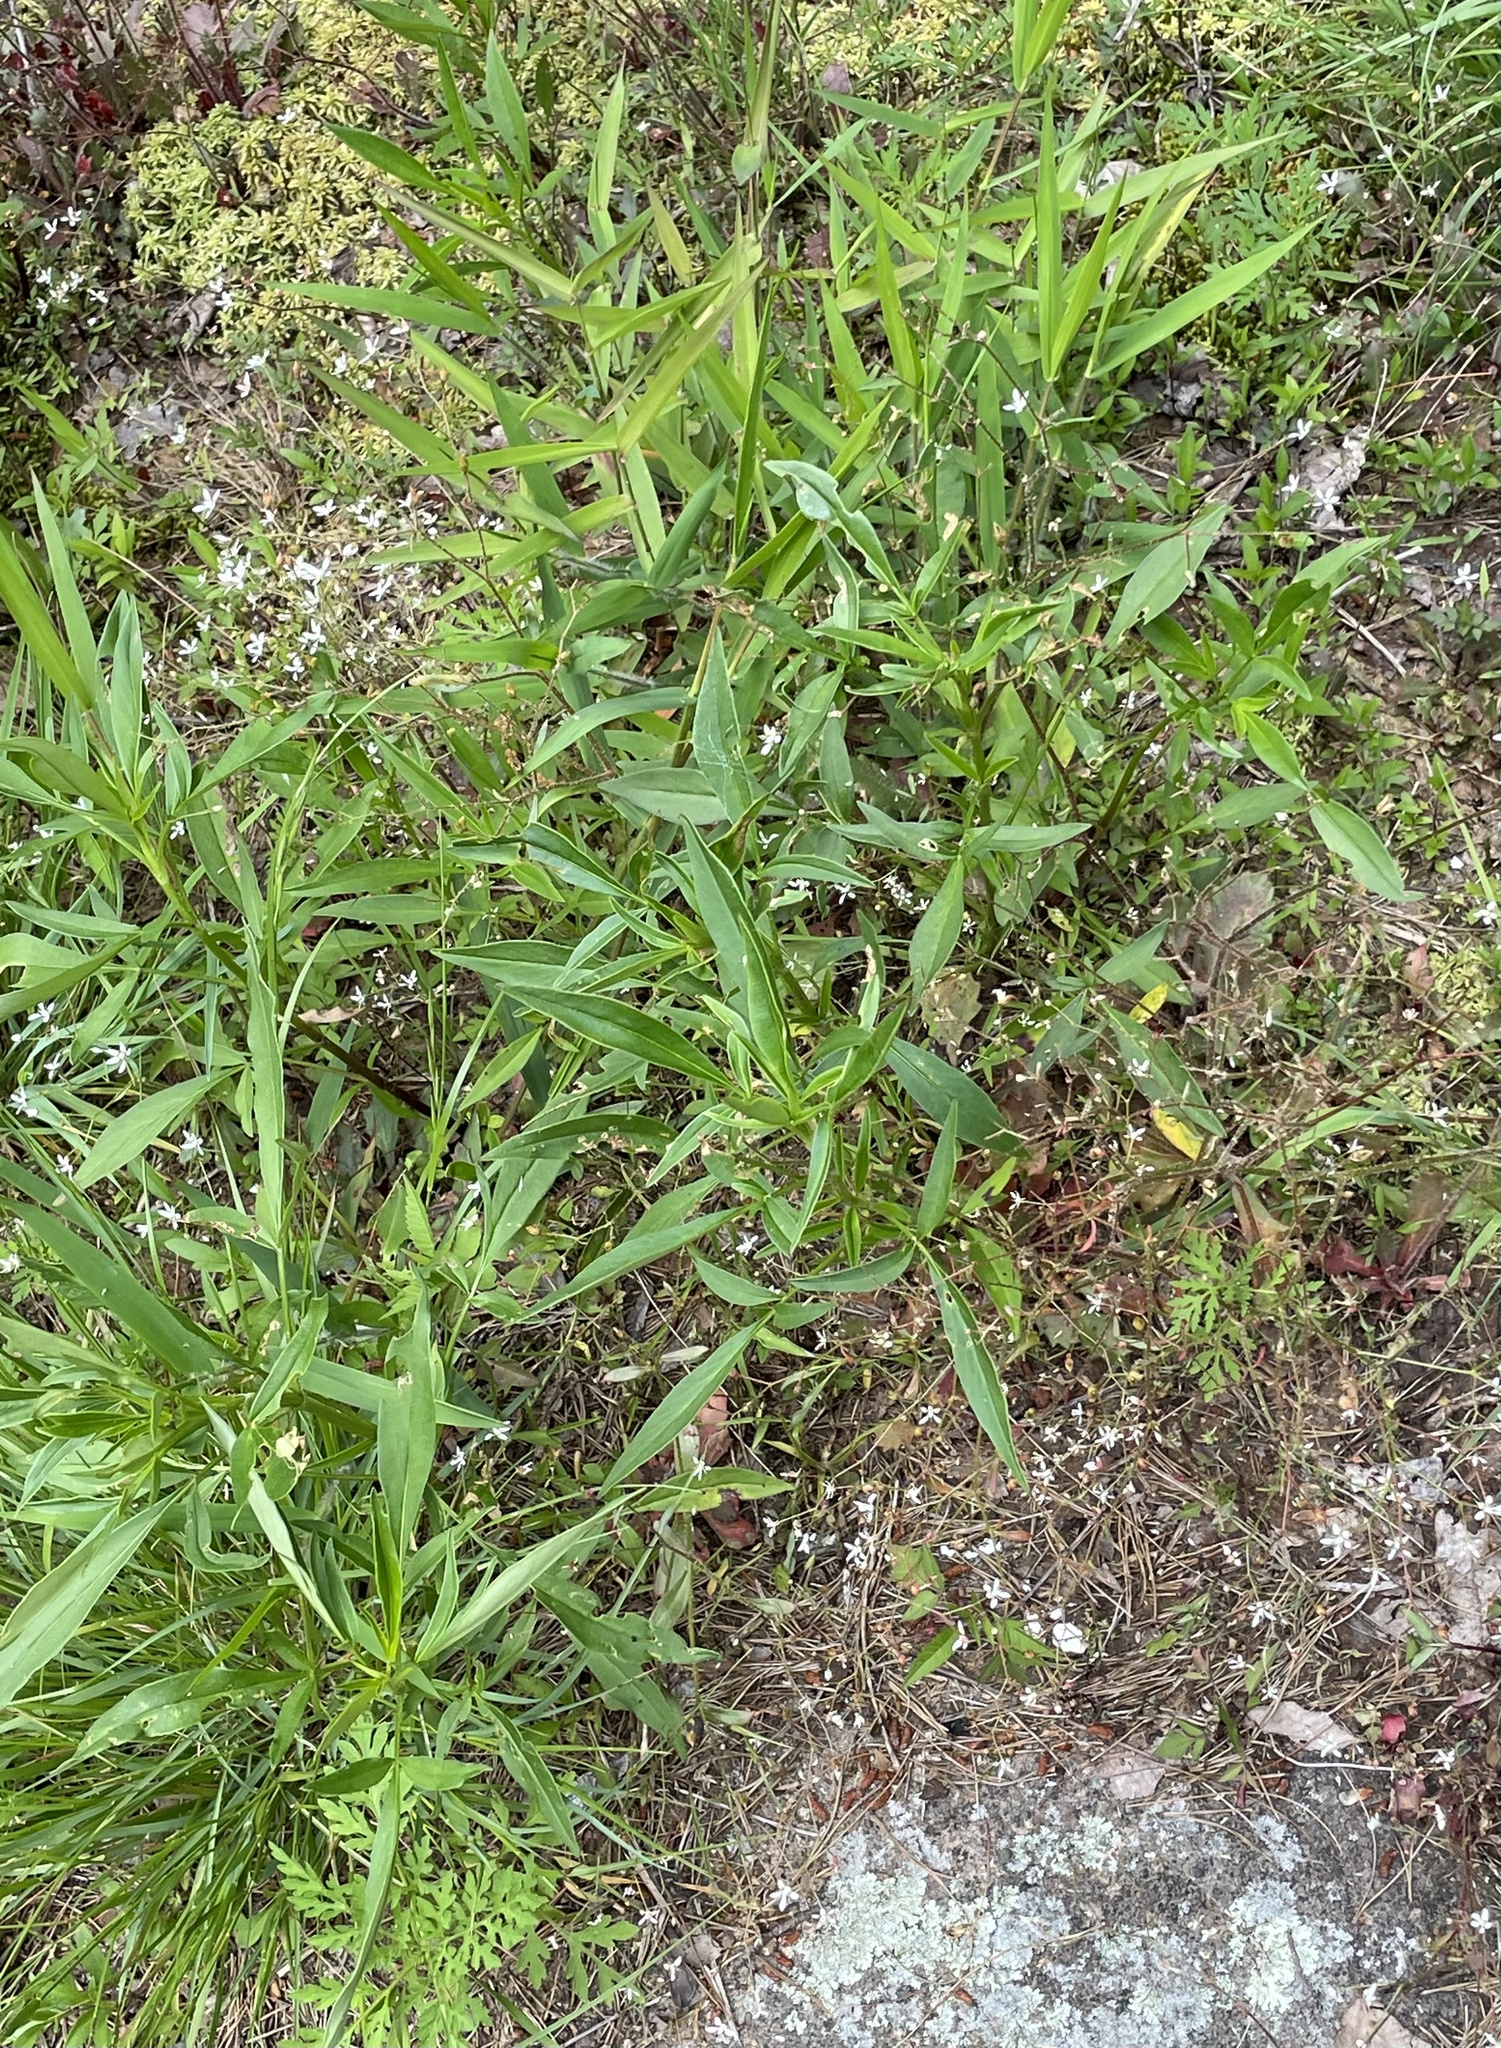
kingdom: Plantae
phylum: Tracheophyta
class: Magnoliopsida
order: Asterales
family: Asteraceae
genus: Coreopsis
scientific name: Coreopsis tripteris
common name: Tall coreopsis
